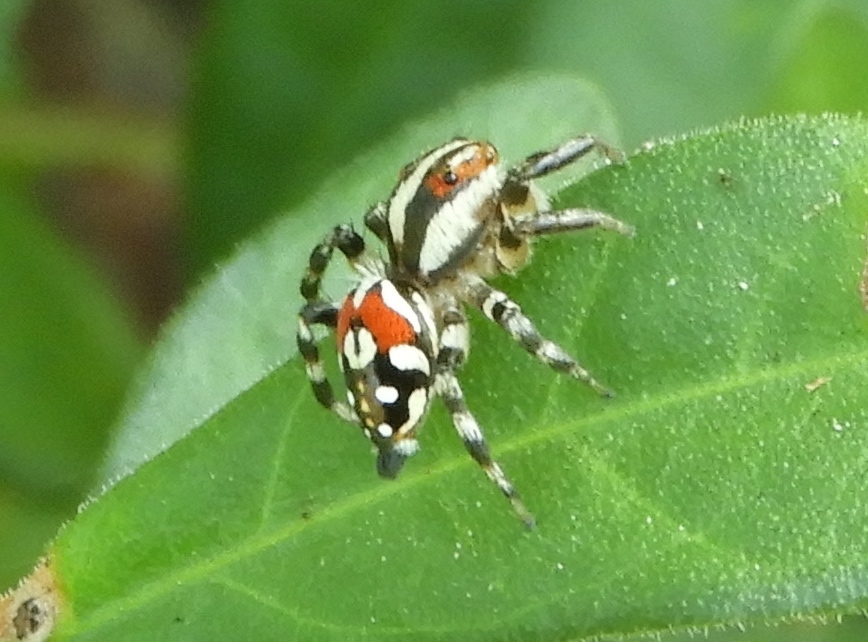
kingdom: Animalia
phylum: Arthropoda
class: Arachnida
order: Araneae
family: Salticidae
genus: Nycerella
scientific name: Nycerella delecta
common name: Jumping spiders
